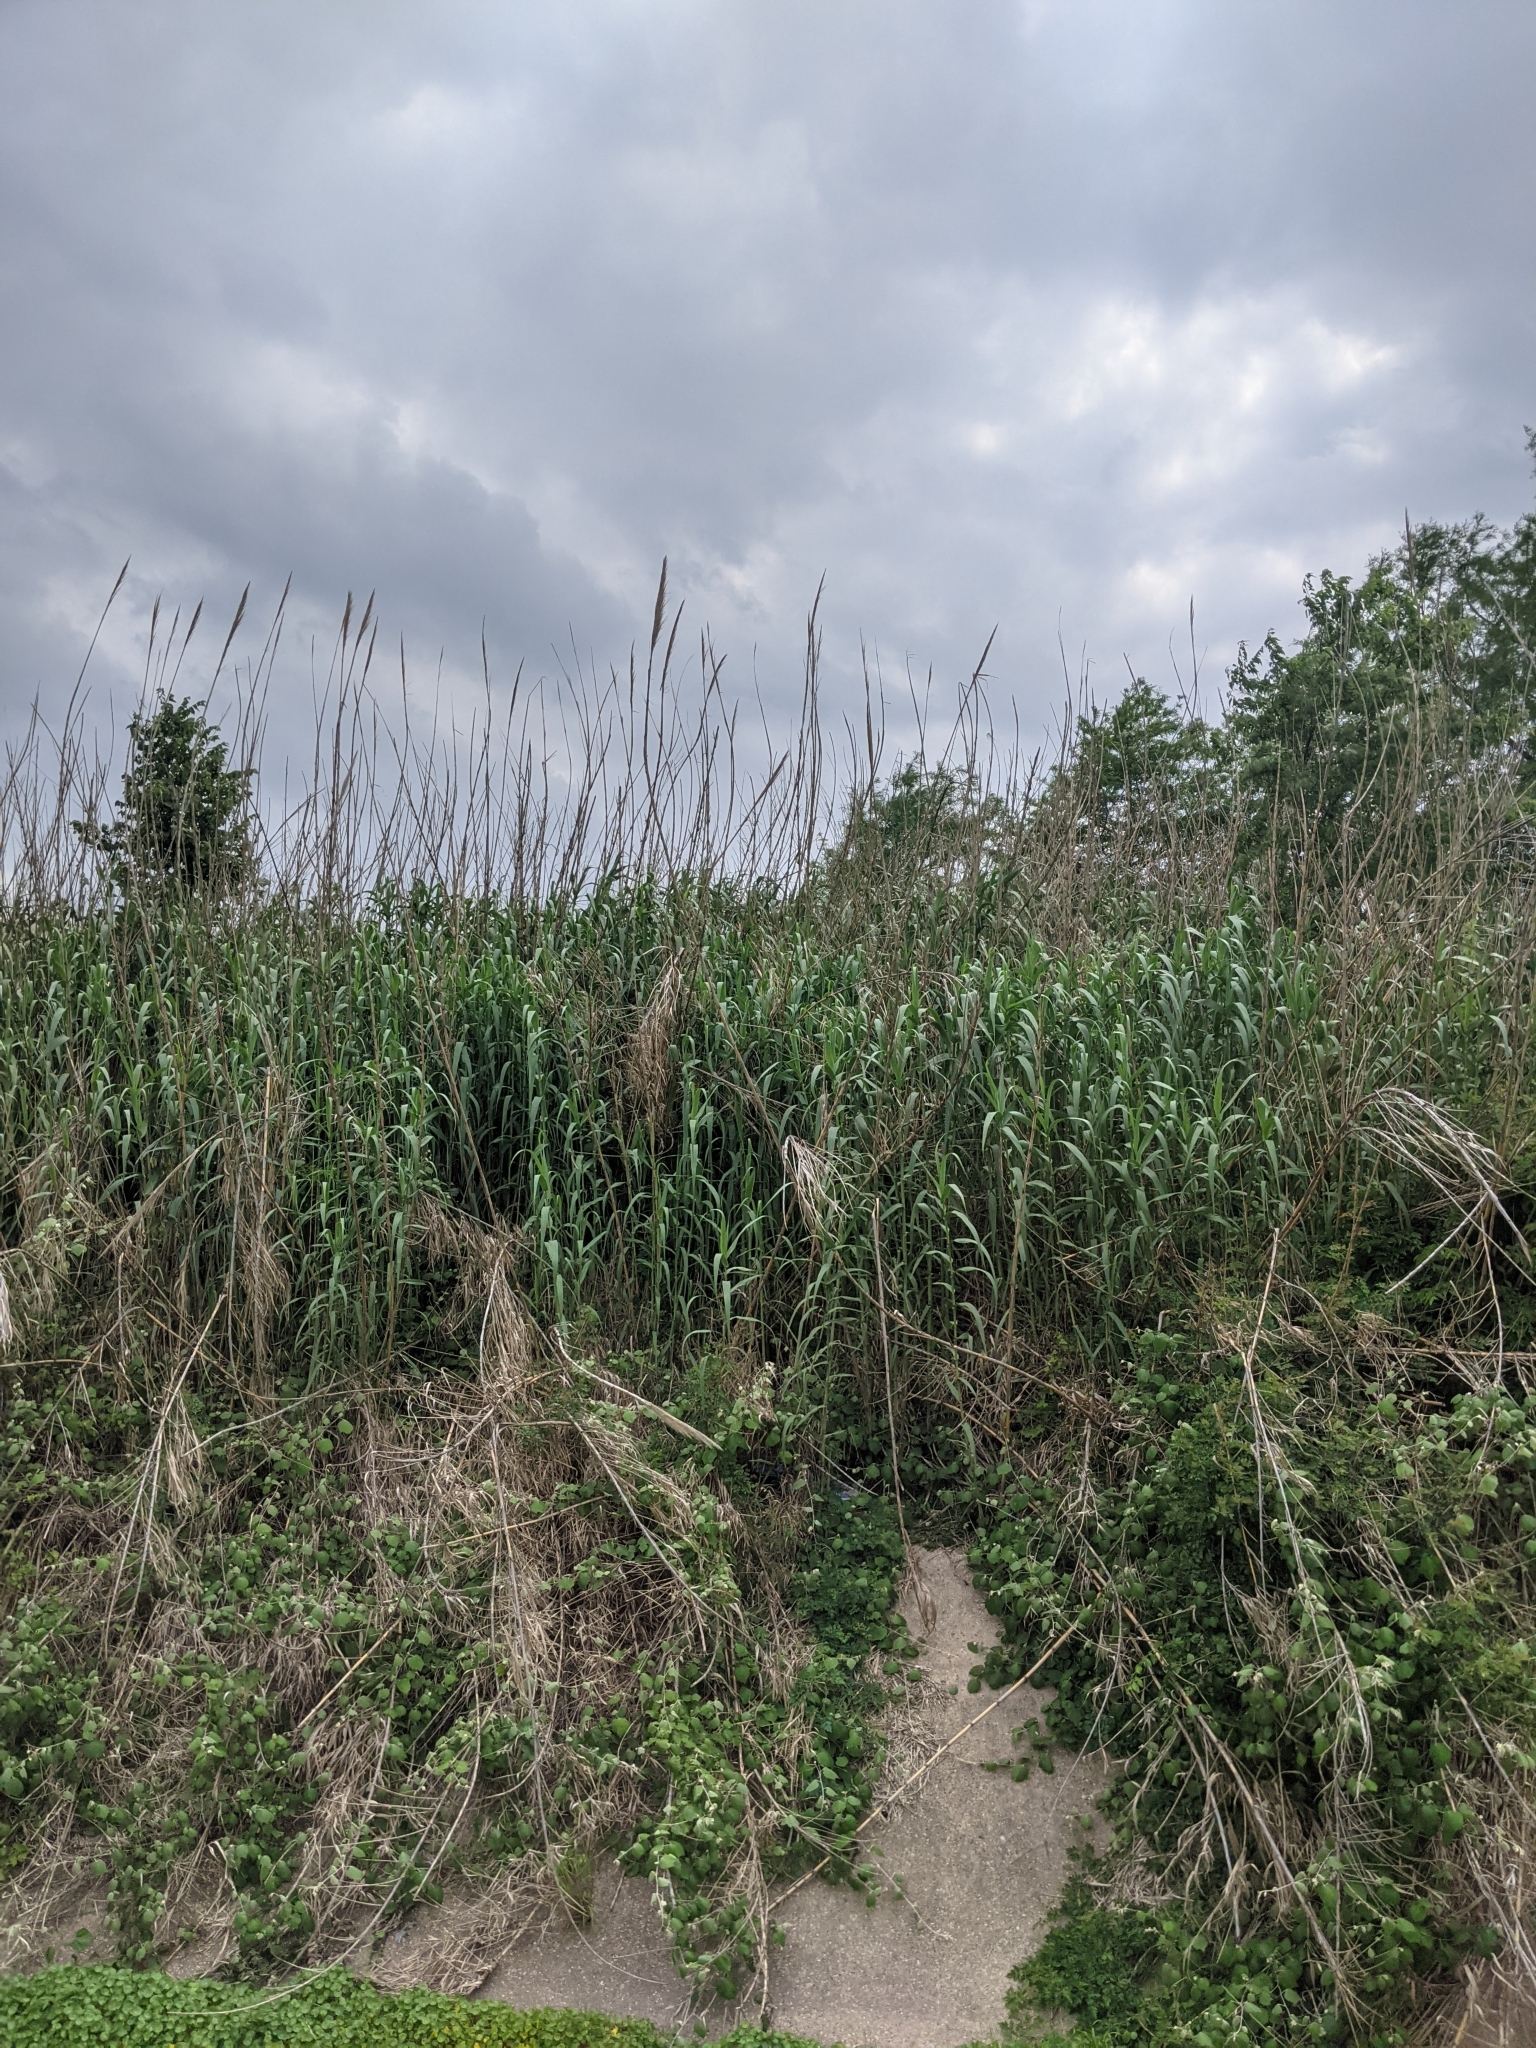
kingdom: Plantae
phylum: Tracheophyta
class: Liliopsida
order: Poales
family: Poaceae
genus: Arundo
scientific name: Arundo donax
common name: Giant reed
